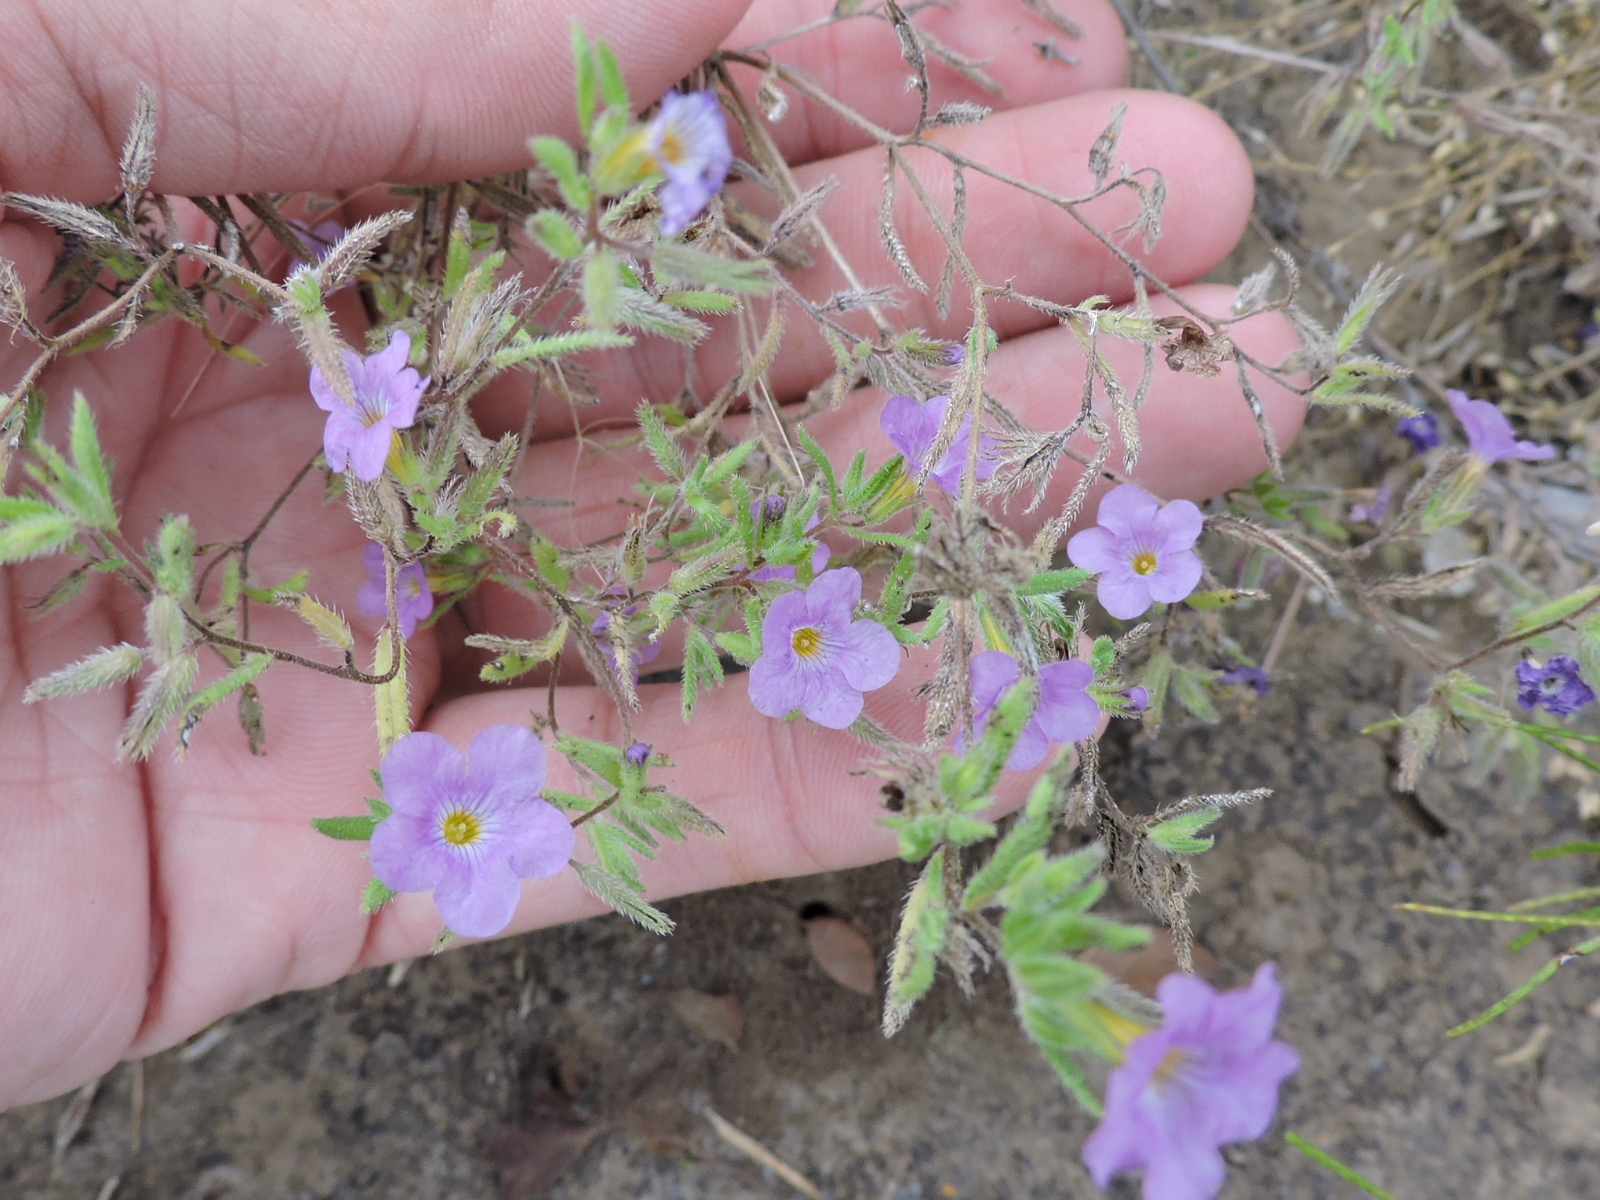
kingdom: Plantae
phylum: Tracheophyta
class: Magnoliopsida
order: Boraginales
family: Namaceae
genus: Nama
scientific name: Nama hispida
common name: Bristly nama
